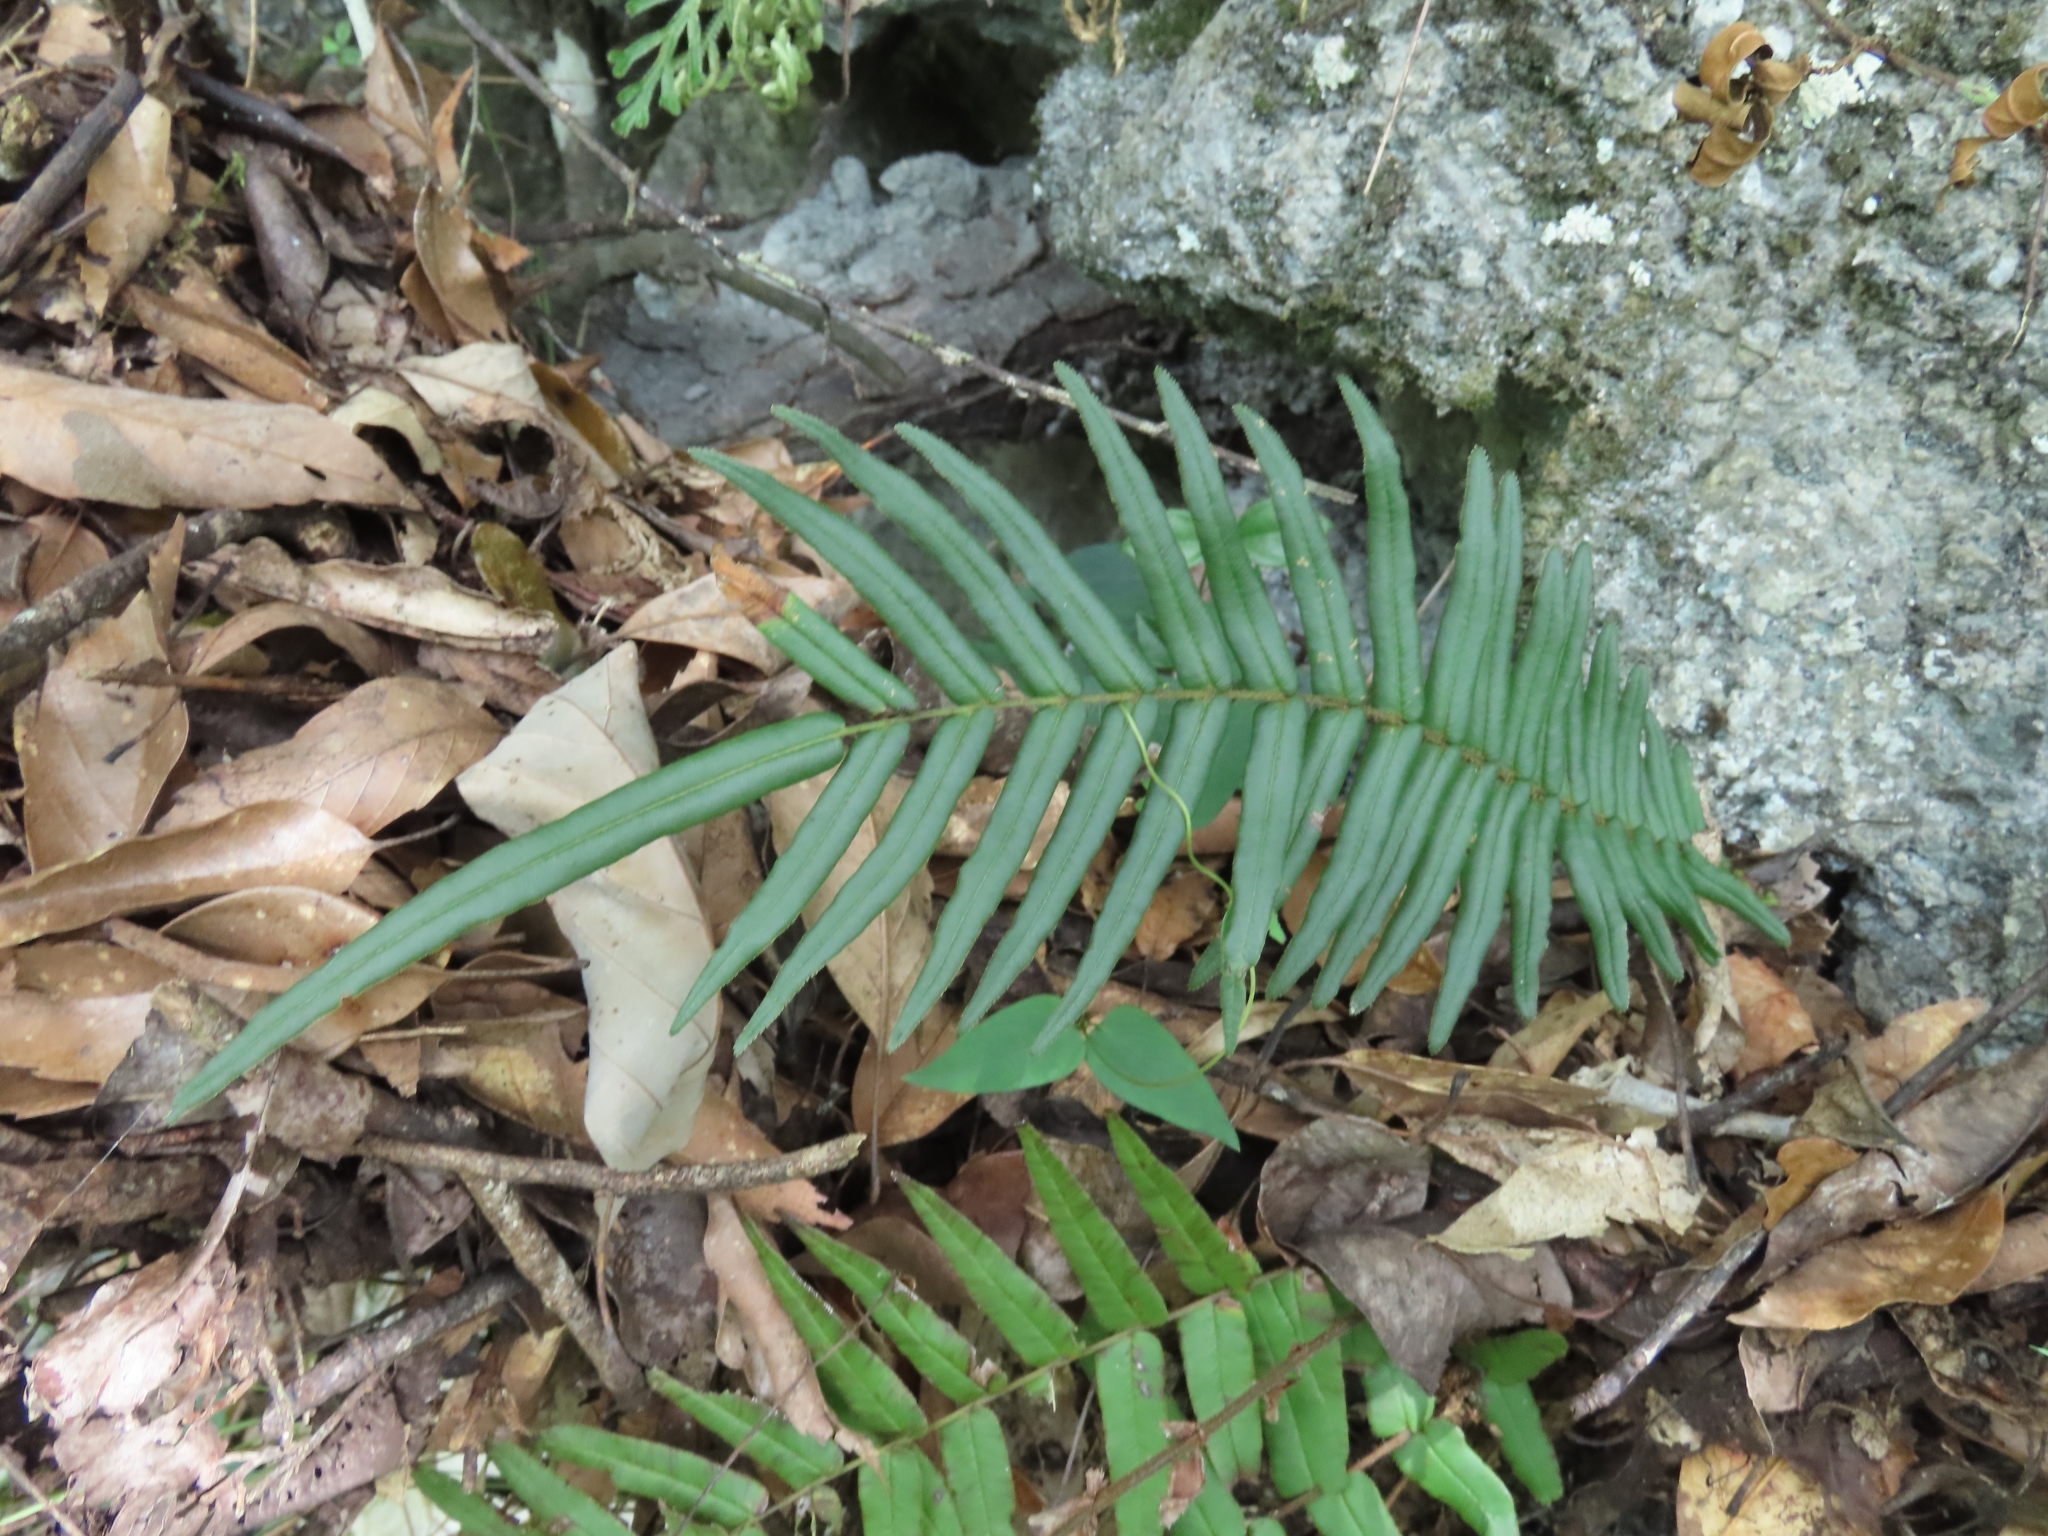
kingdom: Plantae
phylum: Tracheophyta
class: Polypodiopsida
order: Polypodiales
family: Pteridaceae
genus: Pteris
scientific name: Pteris vittata
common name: Ladder brake
